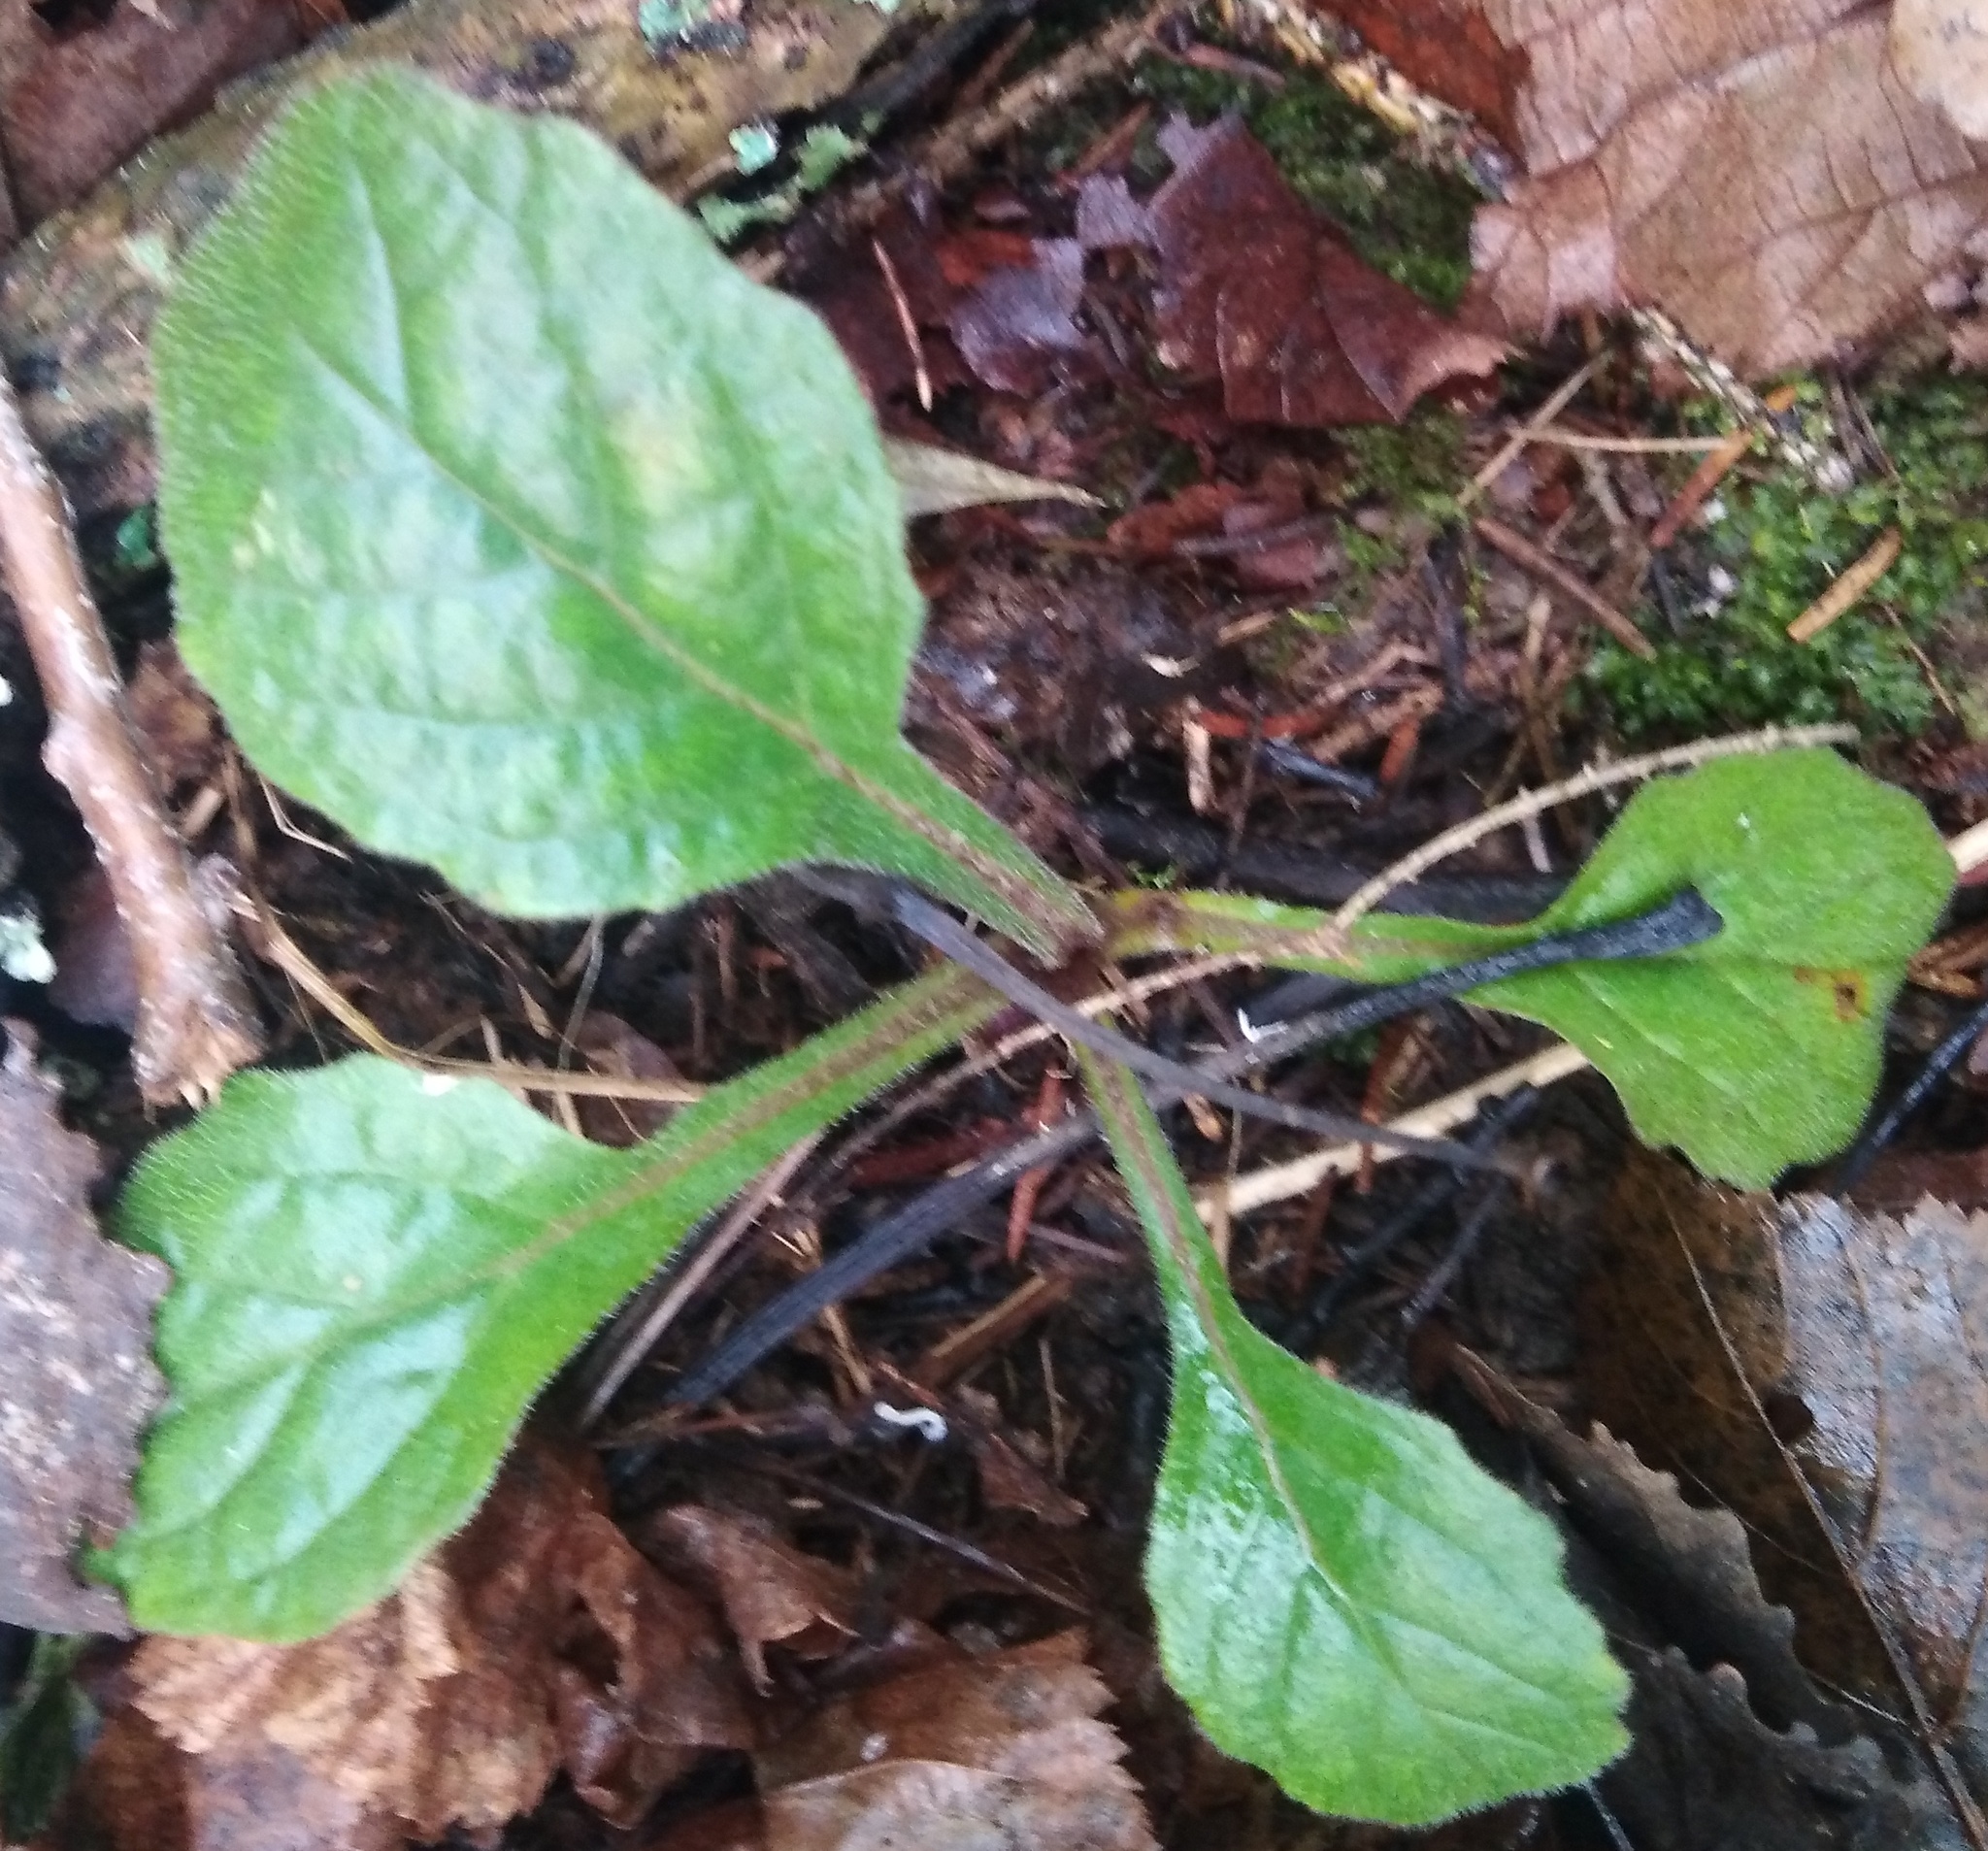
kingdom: Plantae
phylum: Tracheophyta
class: Magnoliopsida
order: Lamiales
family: Lamiaceae
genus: Ajuga
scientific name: Ajuga reptans
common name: Bugle
